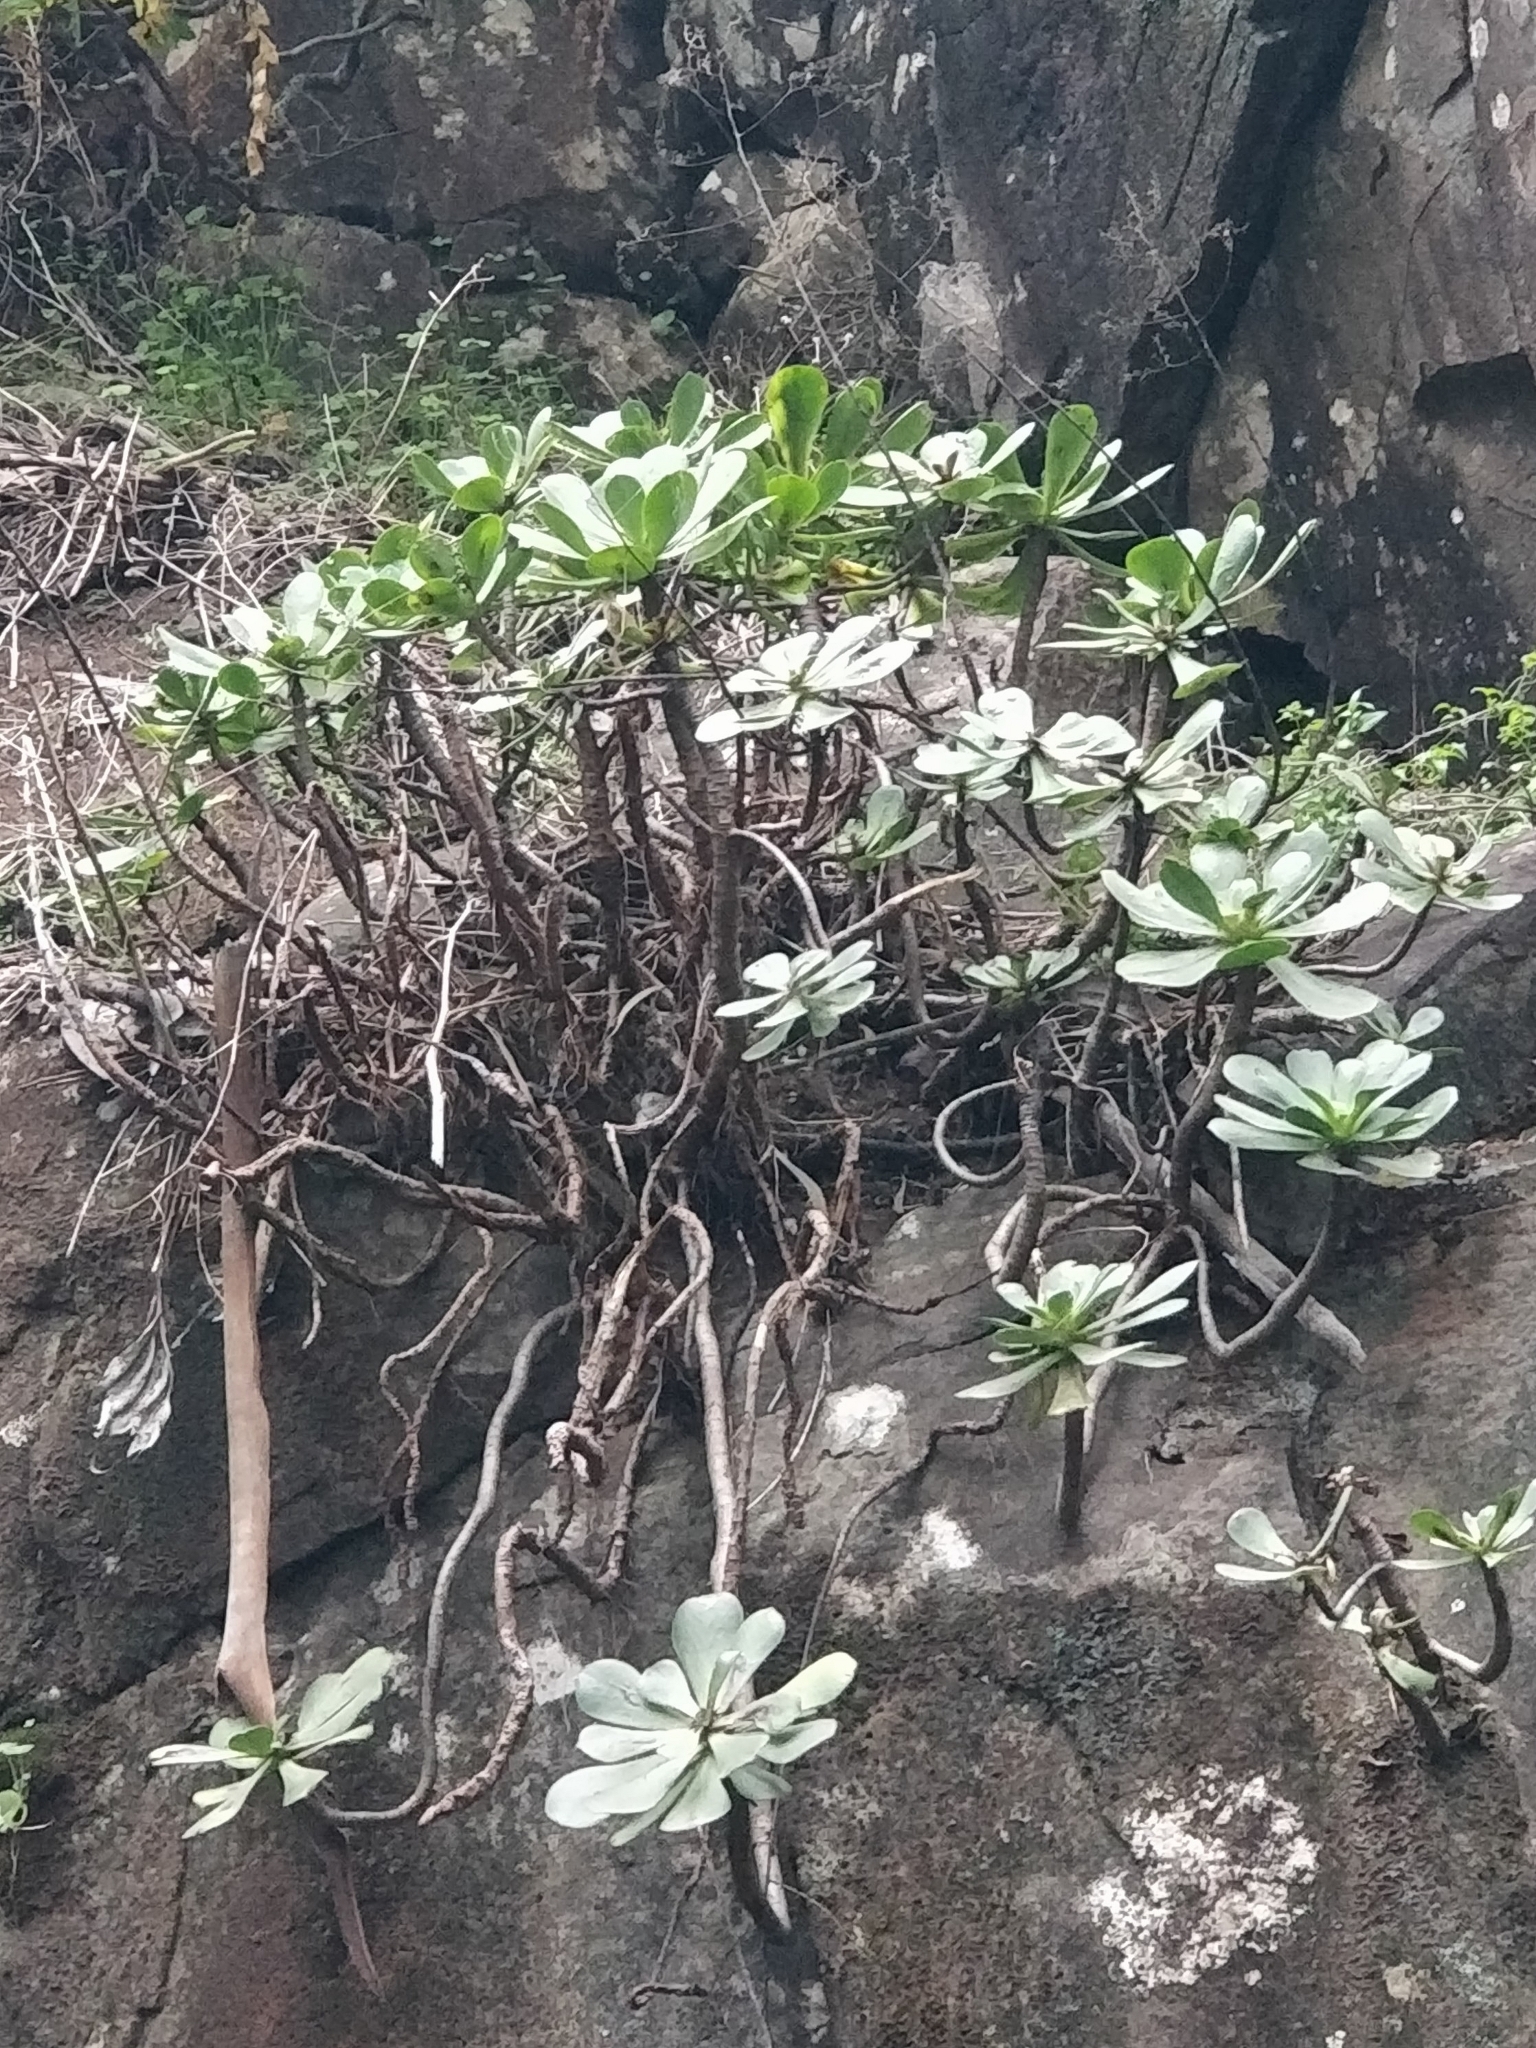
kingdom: Plantae
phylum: Tracheophyta
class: Magnoliopsida
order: Saxifragales
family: Crassulaceae
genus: Aeonium
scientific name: Aeonium glutinosum
